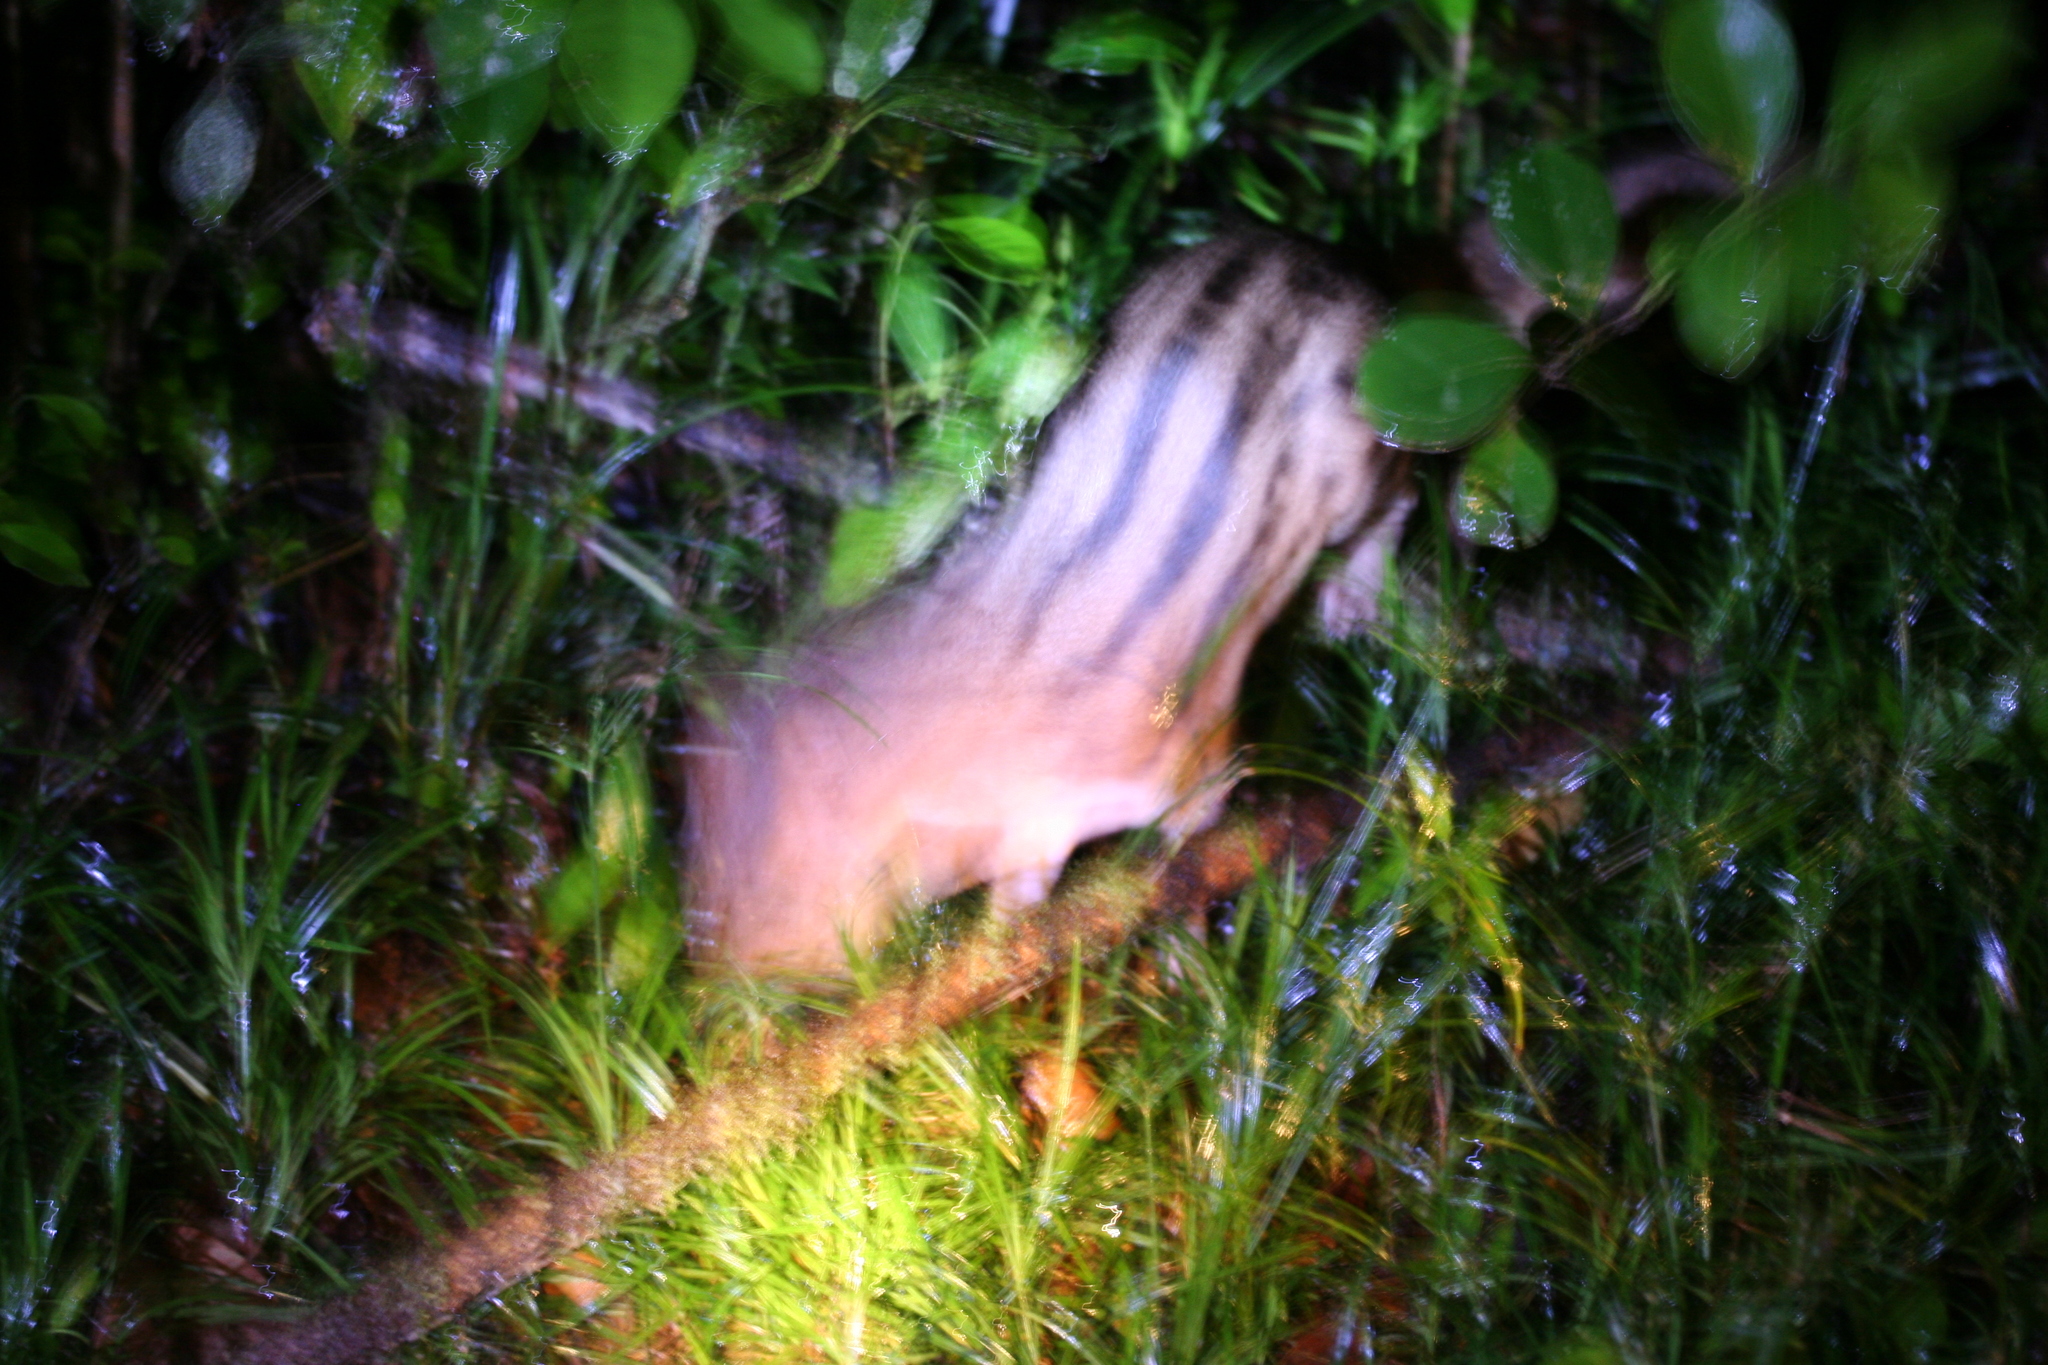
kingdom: Animalia
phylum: Chordata
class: Mammalia
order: Carnivora
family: Eupleridae
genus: Fossa
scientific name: Fossa fossana
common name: Malagasy civet
